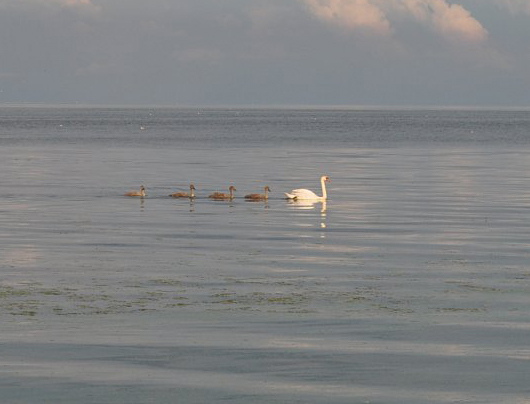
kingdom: Animalia
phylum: Chordata
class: Aves
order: Anseriformes
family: Anatidae
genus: Cygnus
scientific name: Cygnus olor
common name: Mute swan
